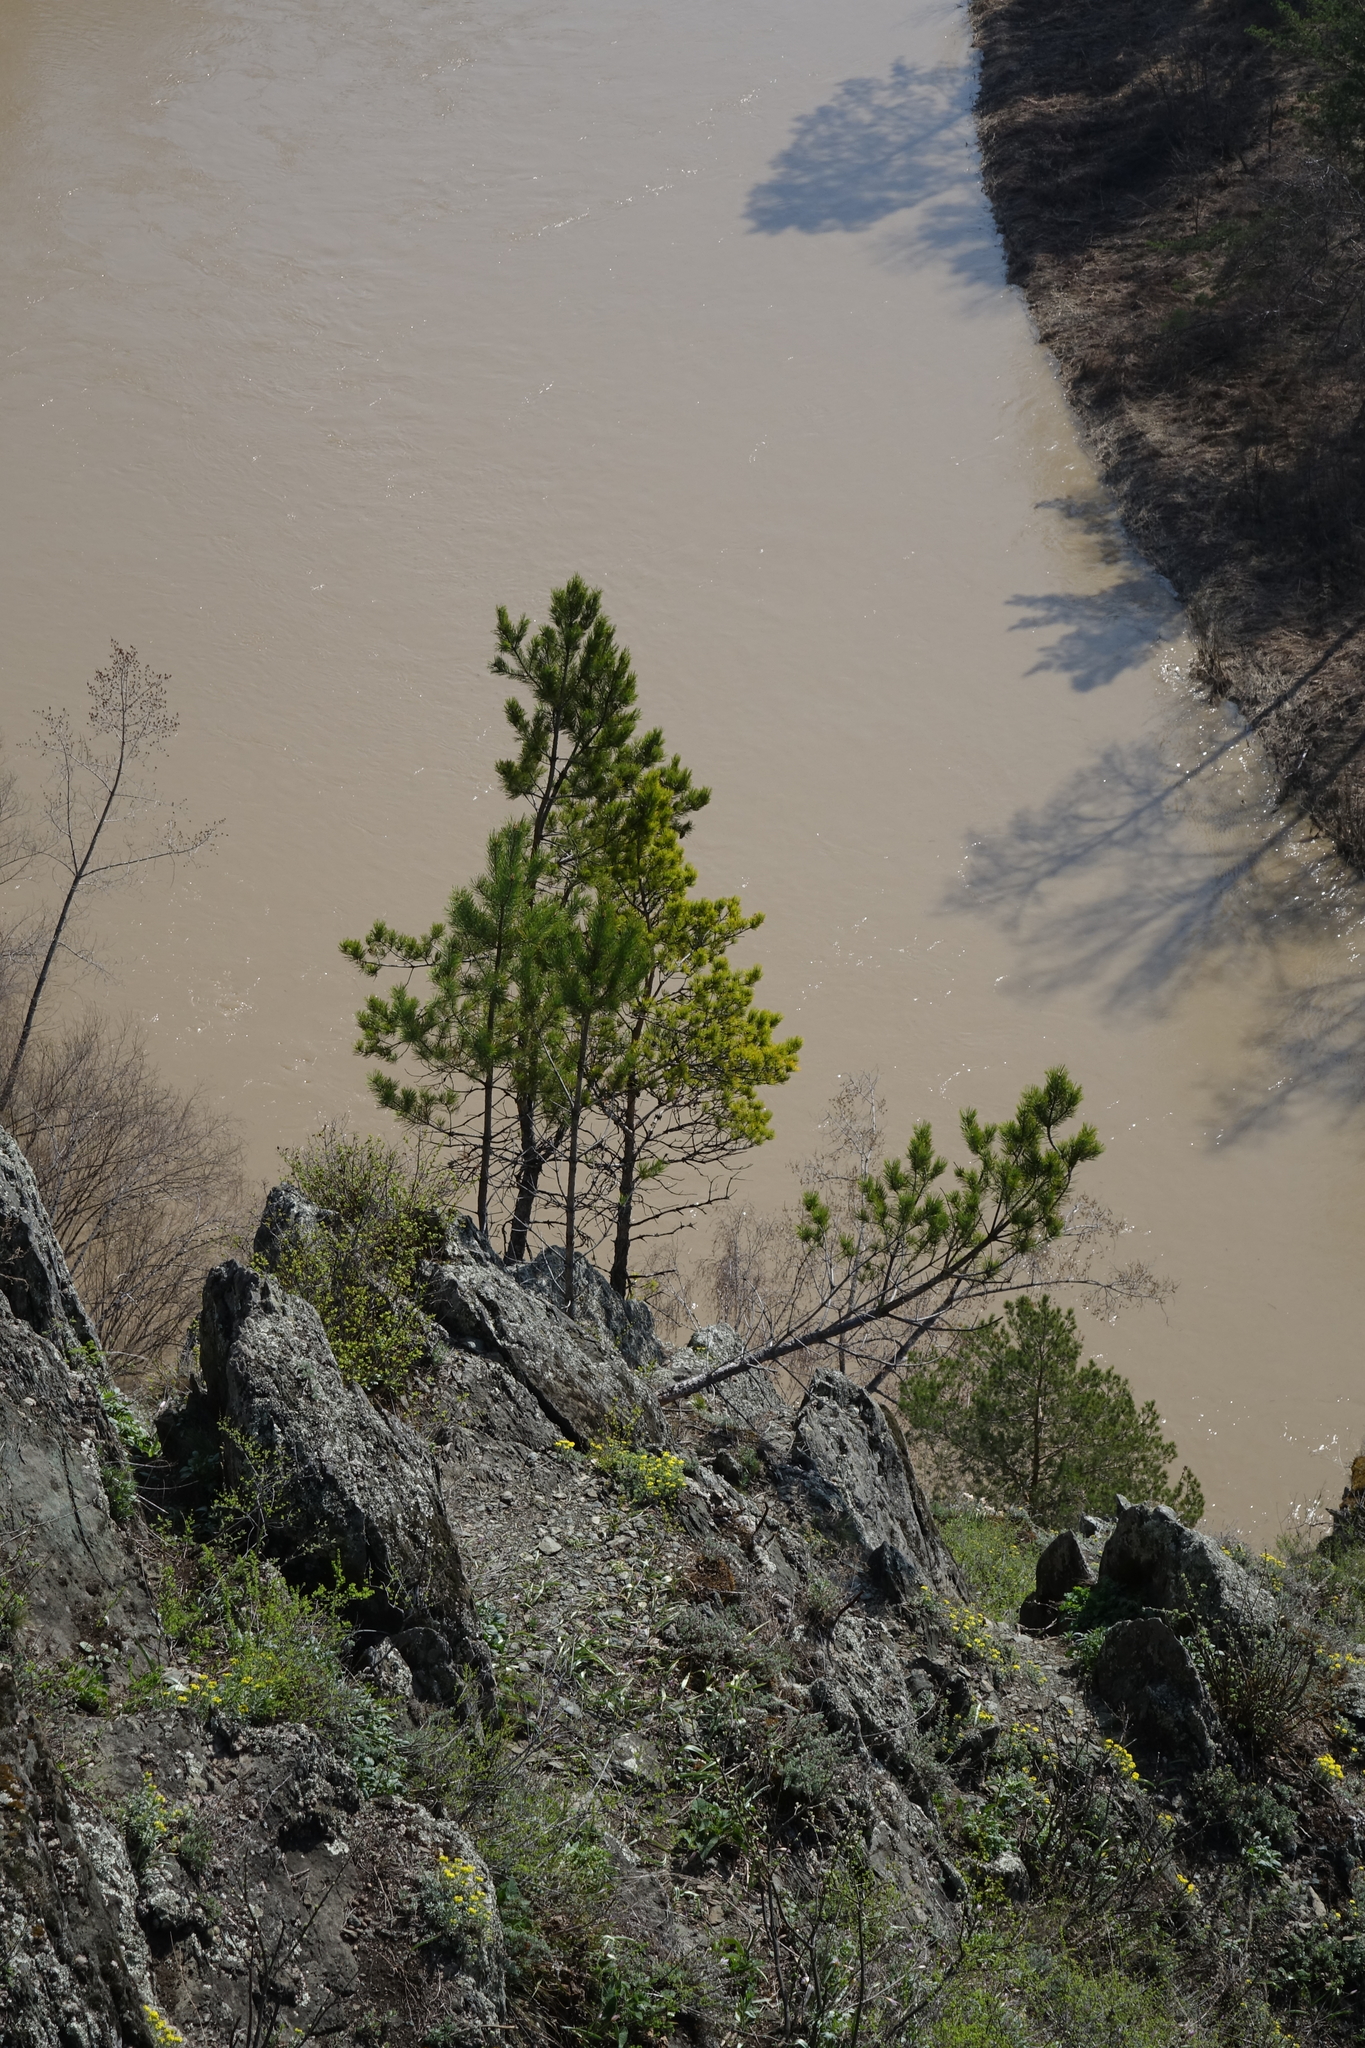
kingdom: Plantae
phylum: Tracheophyta
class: Pinopsida
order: Pinales
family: Pinaceae
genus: Pinus
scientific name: Pinus sylvestris
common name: Scots pine
